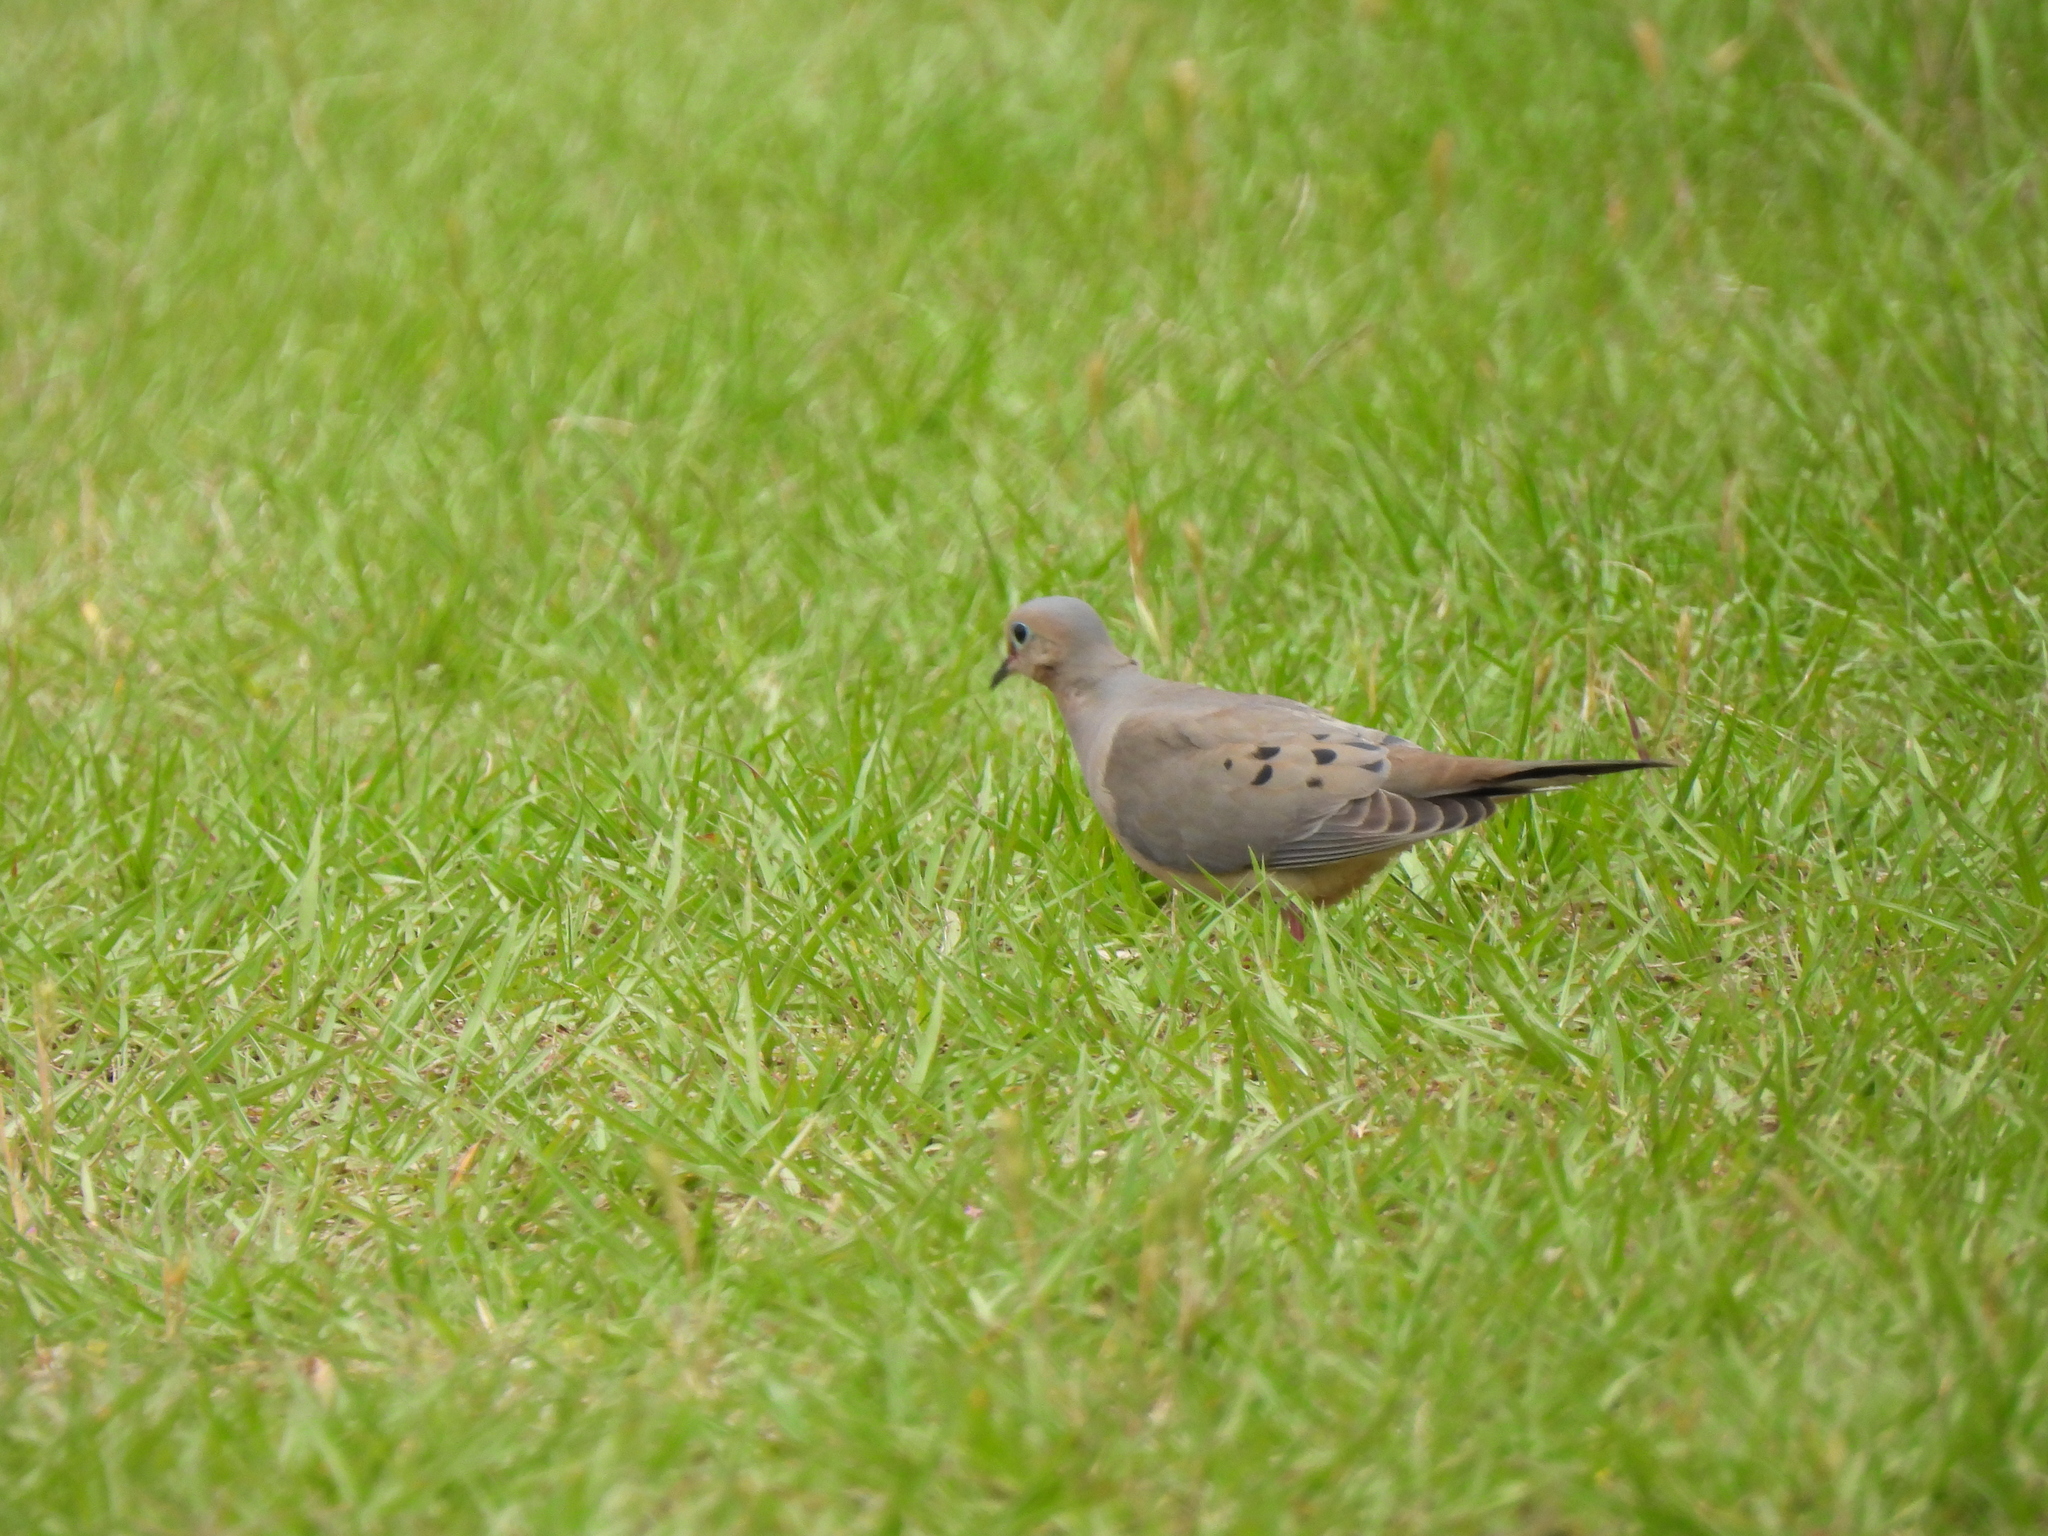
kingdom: Animalia
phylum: Chordata
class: Aves
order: Columbiformes
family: Columbidae
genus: Zenaida
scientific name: Zenaida macroura
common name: Mourning dove
